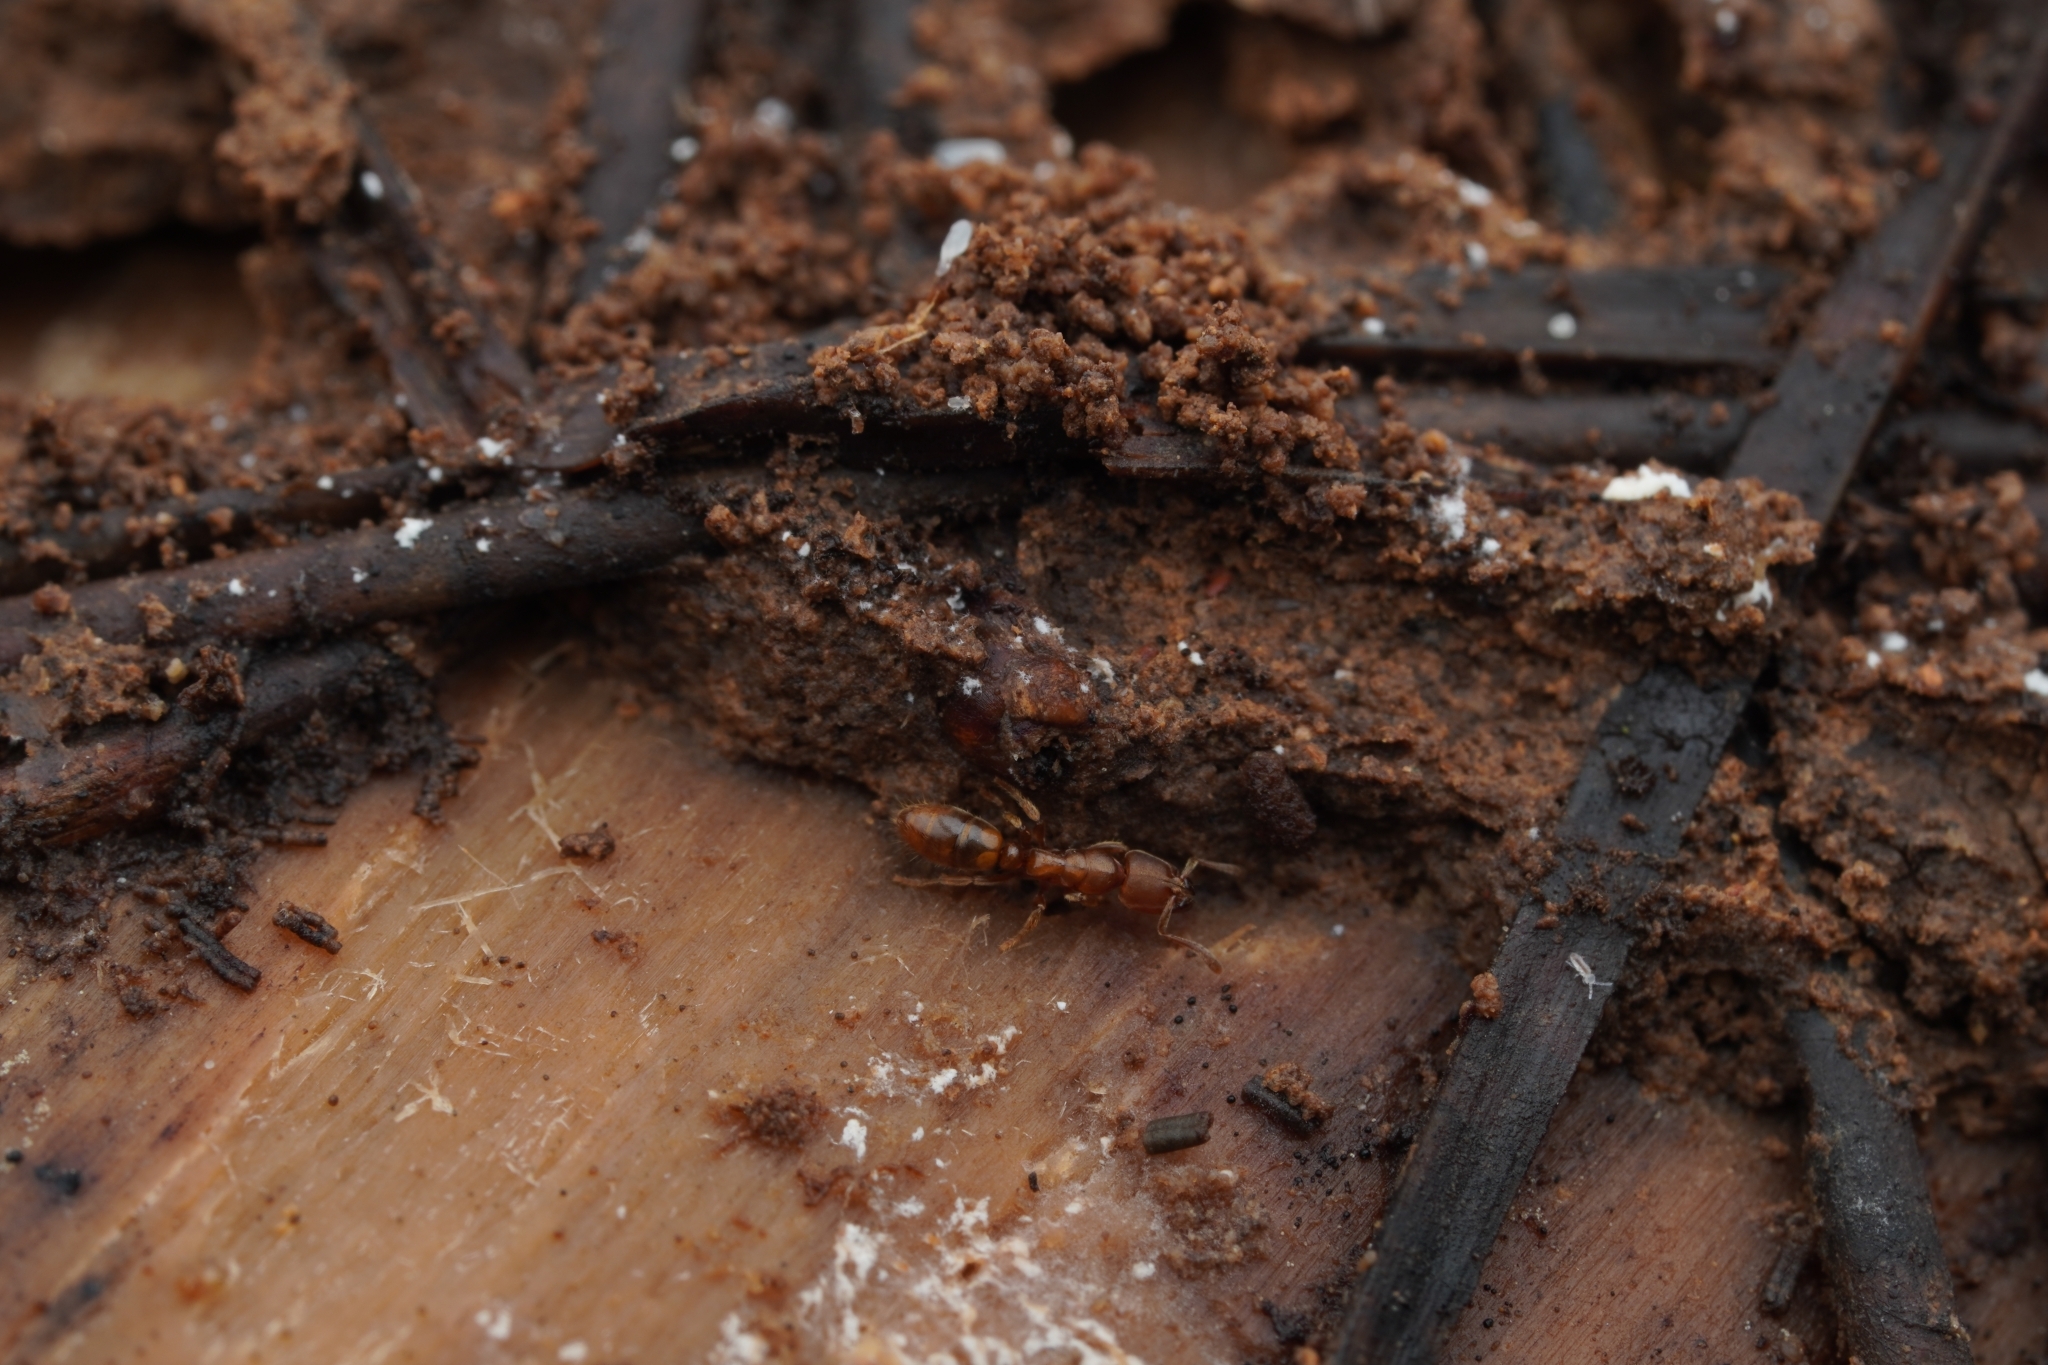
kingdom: Animalia
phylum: Arthropoda
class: Insecta
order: Hymenoptera
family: Formicidae
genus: Cryptopone
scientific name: Cryptopone sauteri
